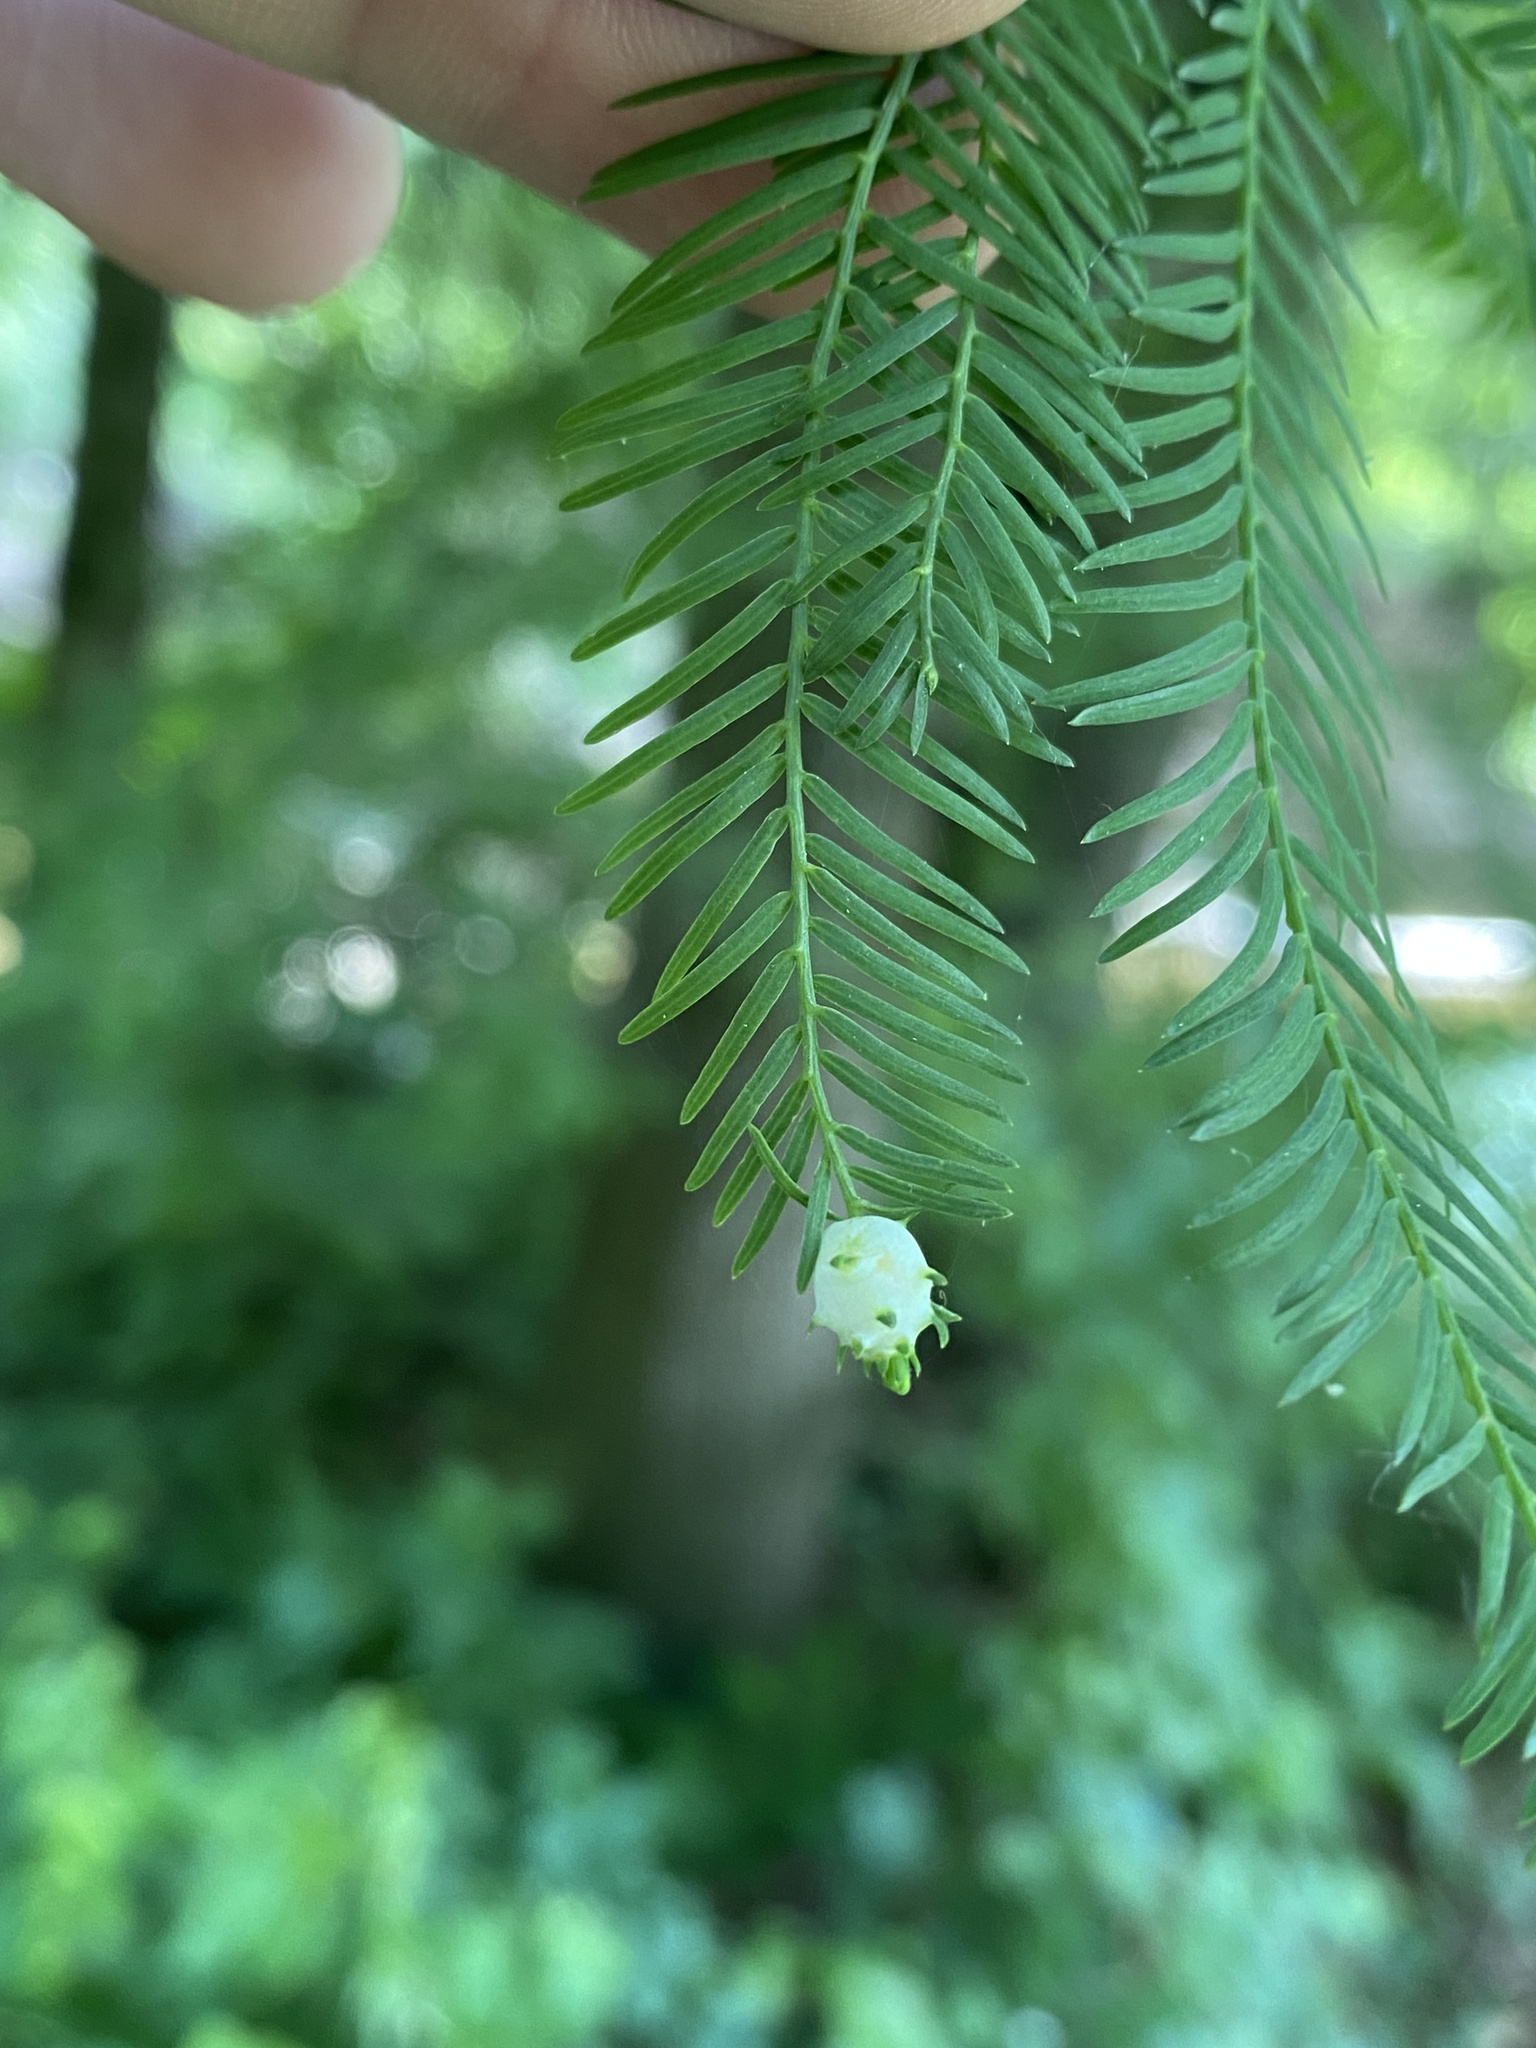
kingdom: Animalia
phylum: Arthropoda
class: Insecta
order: Diptera
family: Cecidomyiidae
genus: Taxodiomyia
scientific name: Taxodiomyia cupressiananassa
